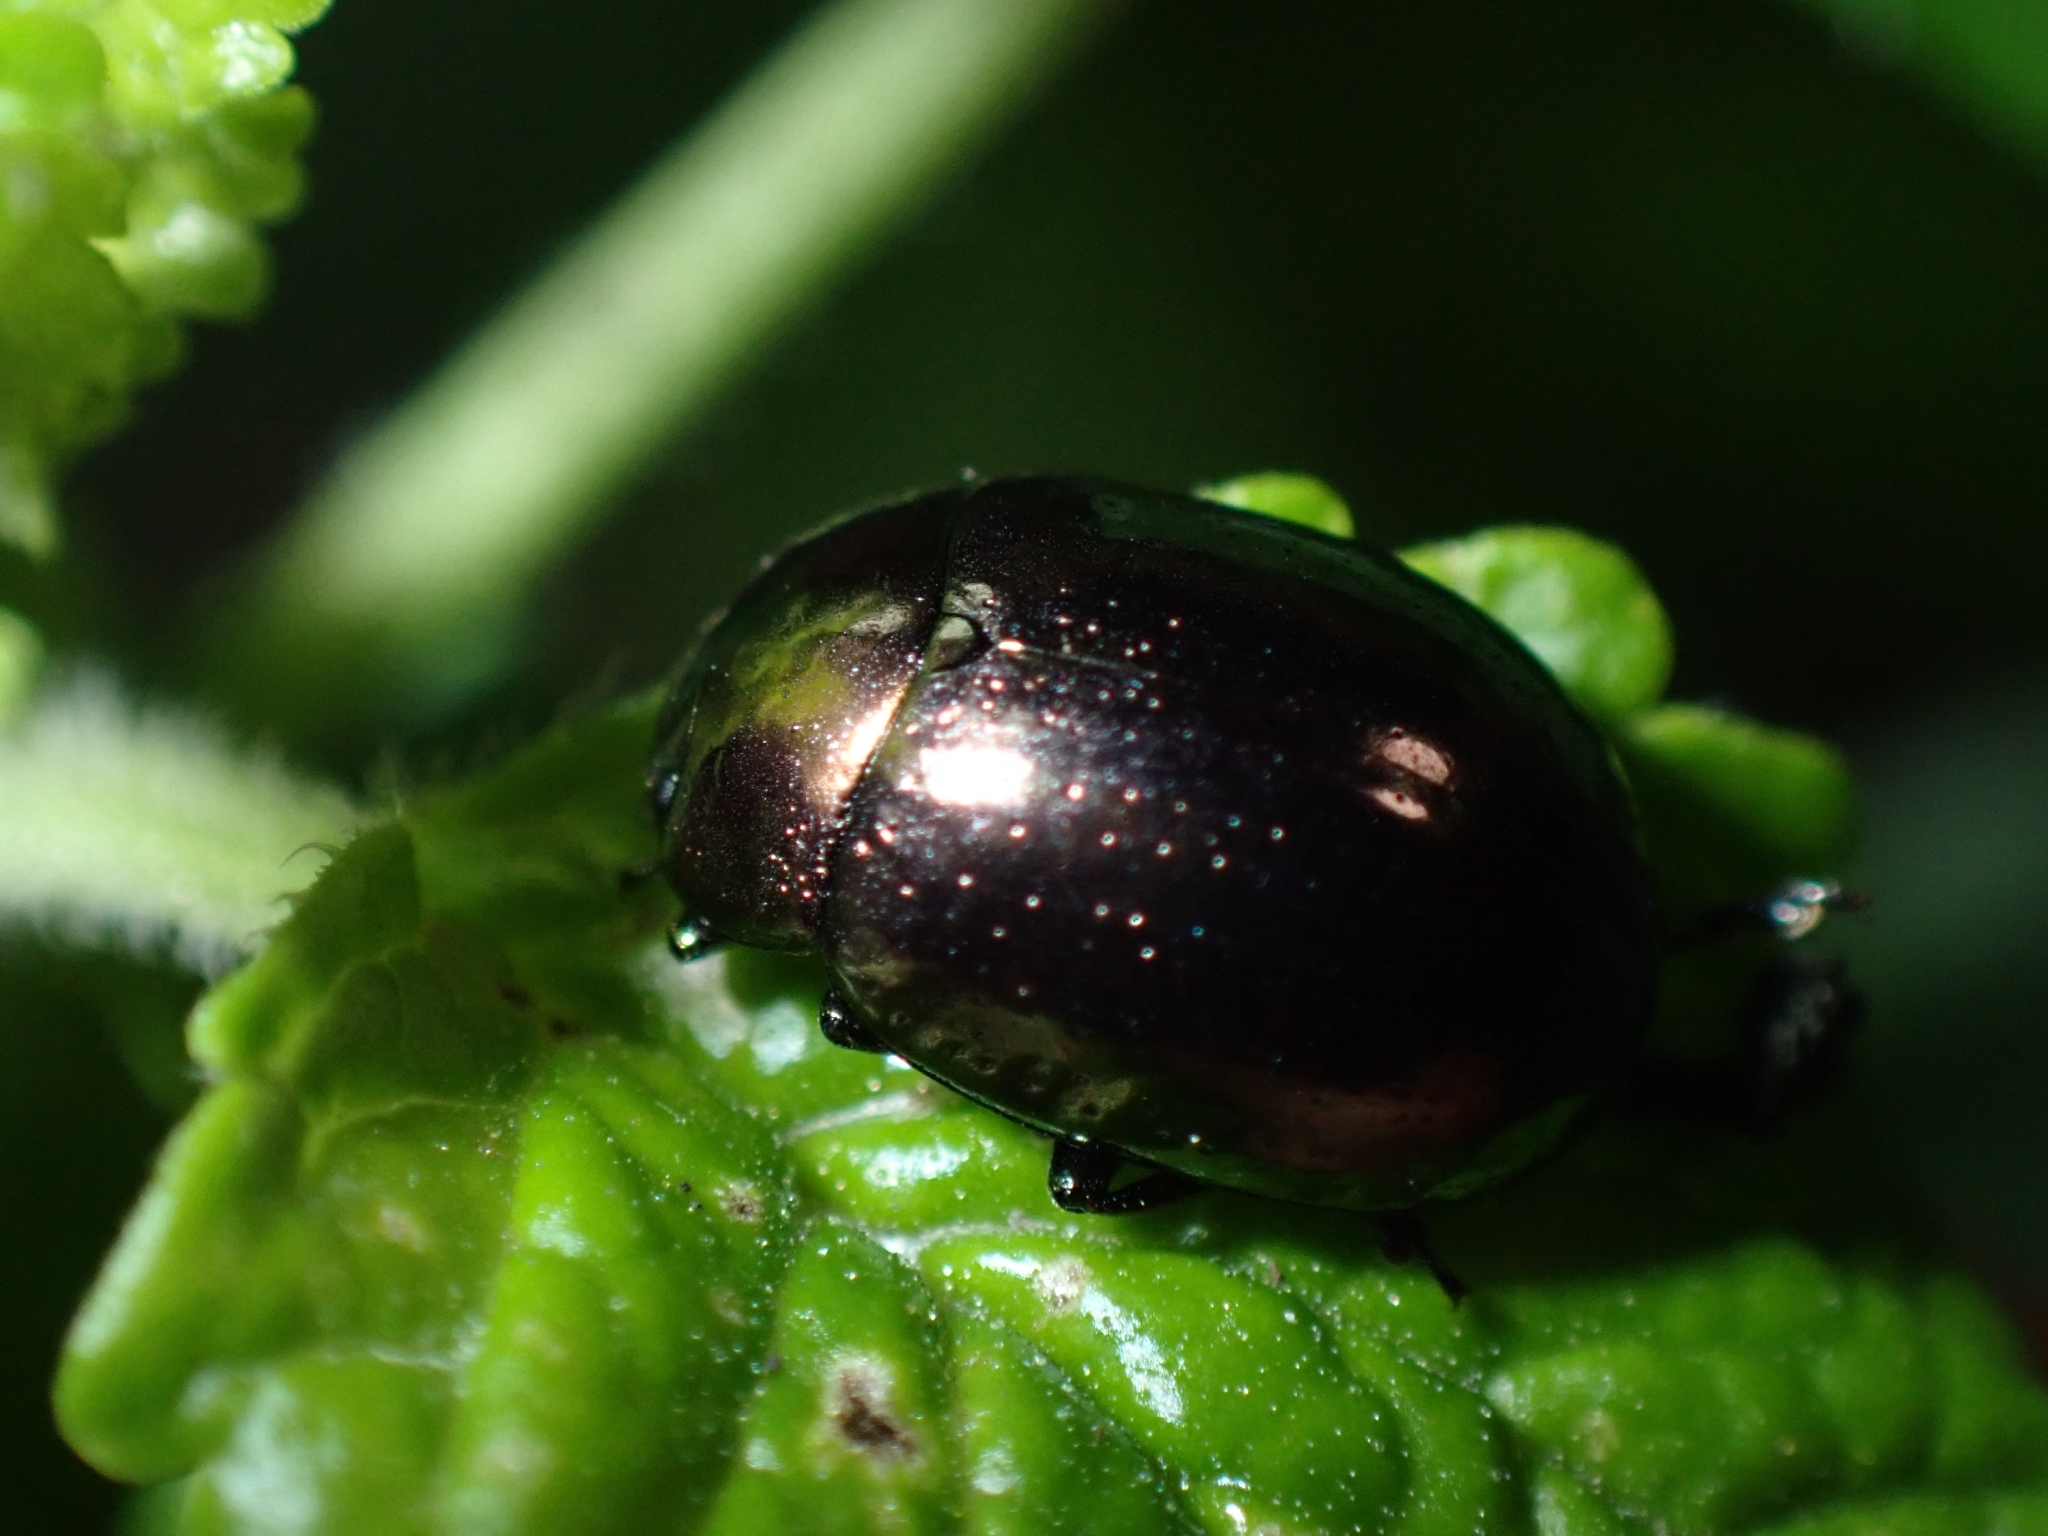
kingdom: Animalia
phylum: Arthropoda
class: Insecta
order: Coleoptera
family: Chrysomelidae
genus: Chrysolina
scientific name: Chrysolina geminata
